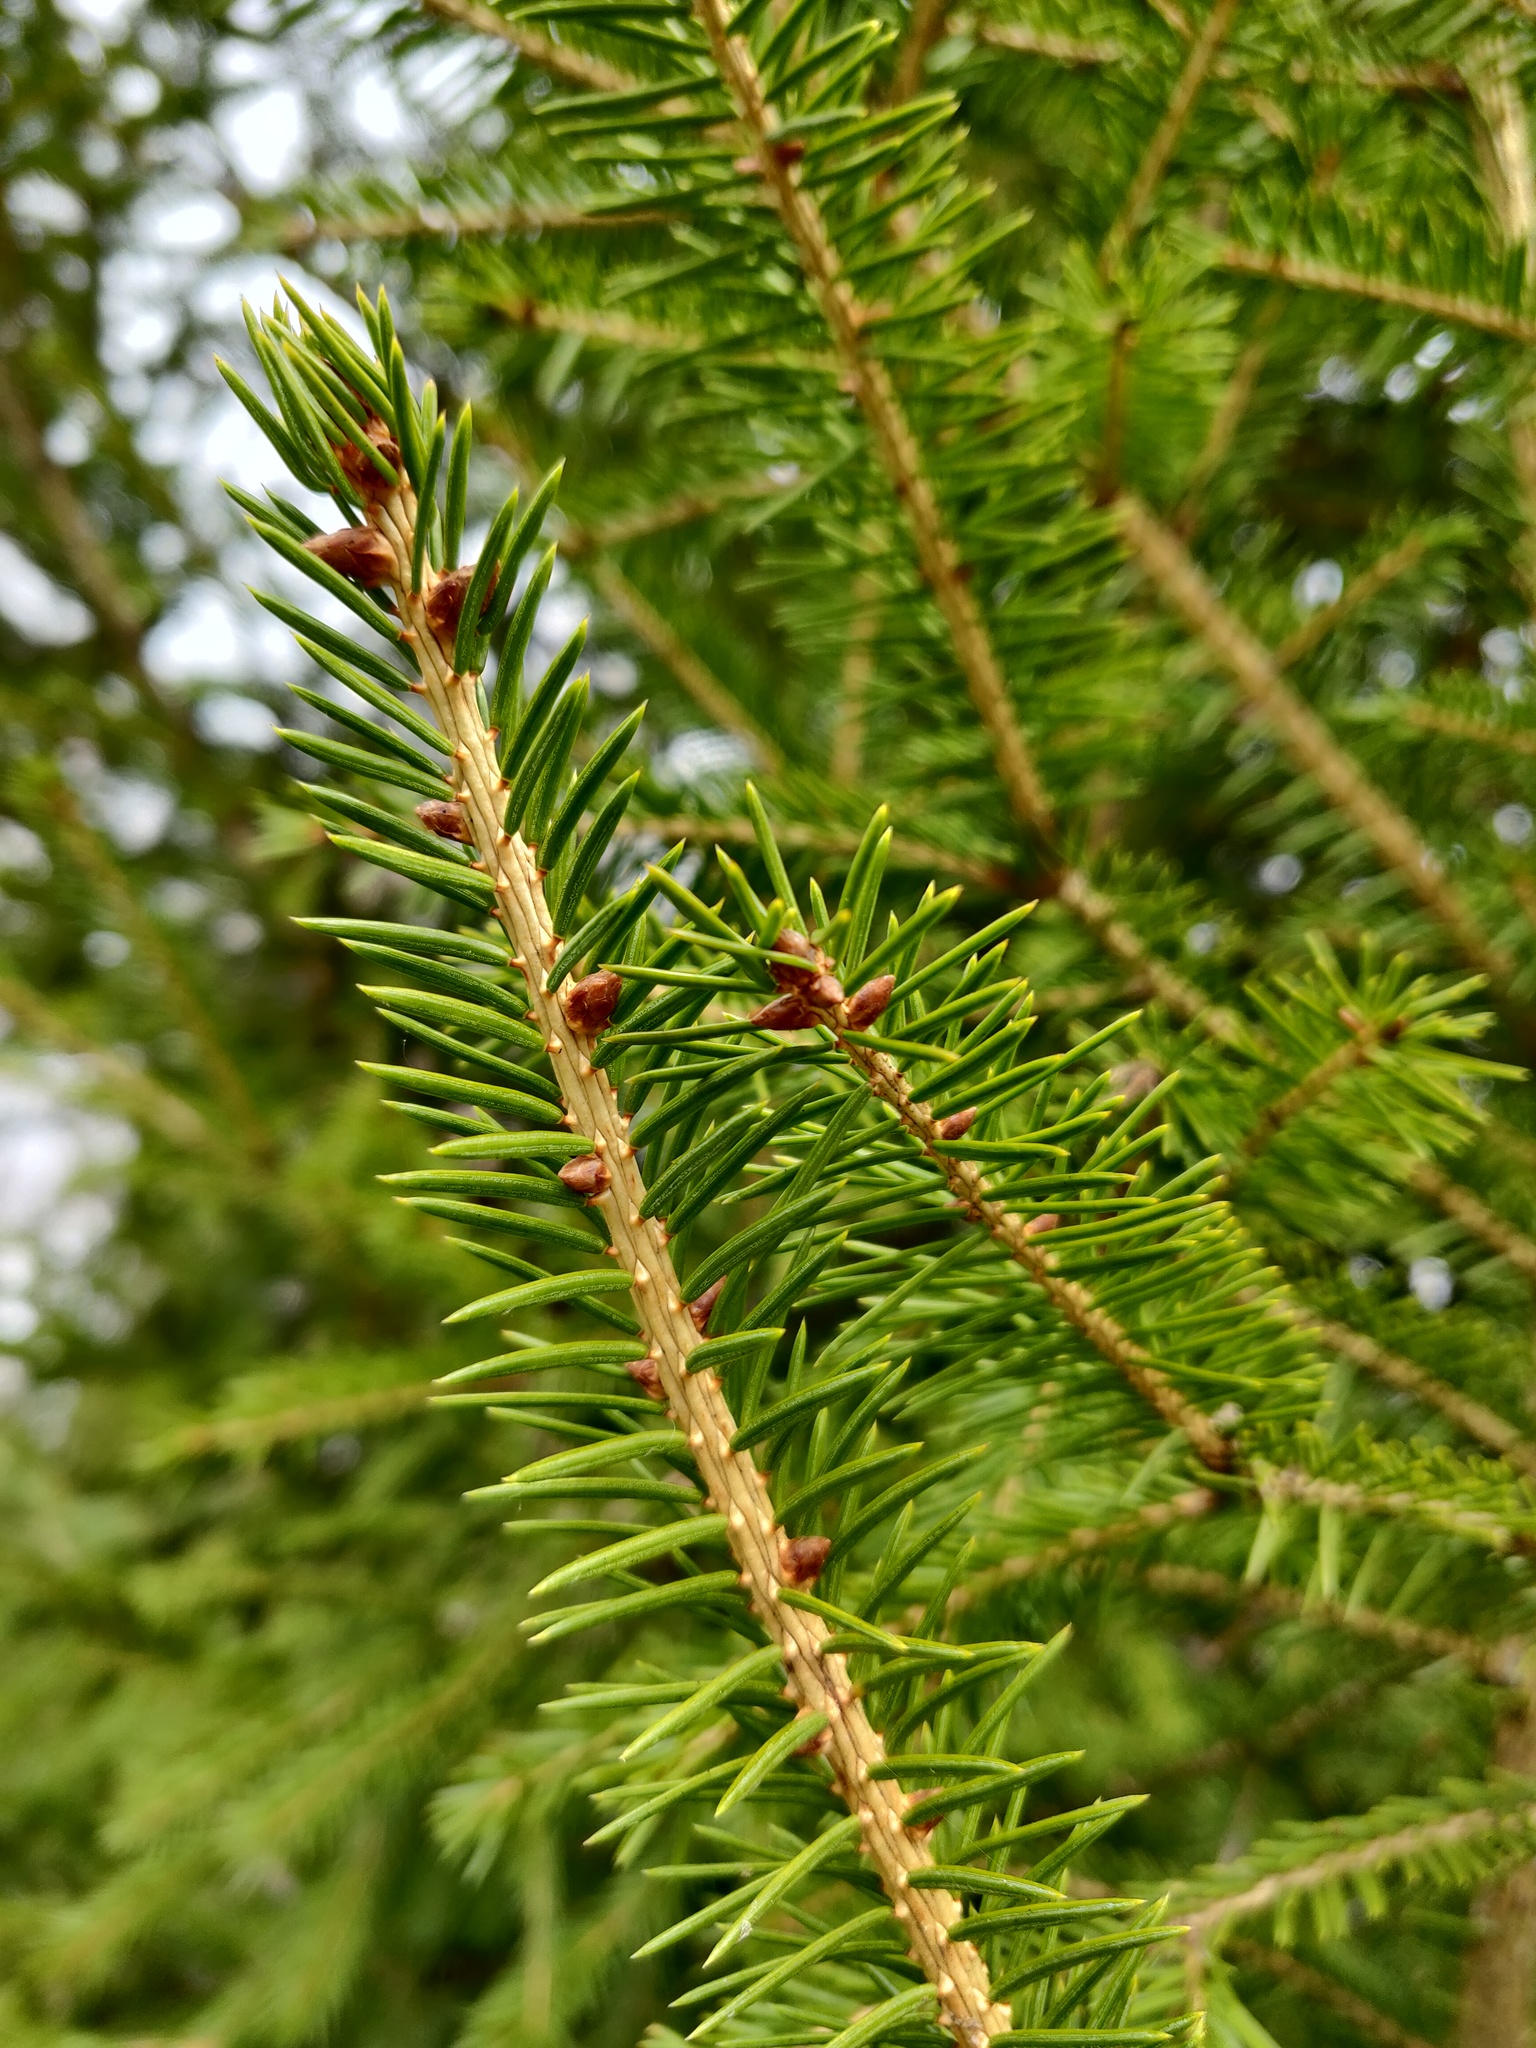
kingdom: Plantae
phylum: Tracheophyta
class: Pinopsida
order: Pinales
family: Pinaceae
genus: Picea
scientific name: Picea abies
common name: Norway spruce
